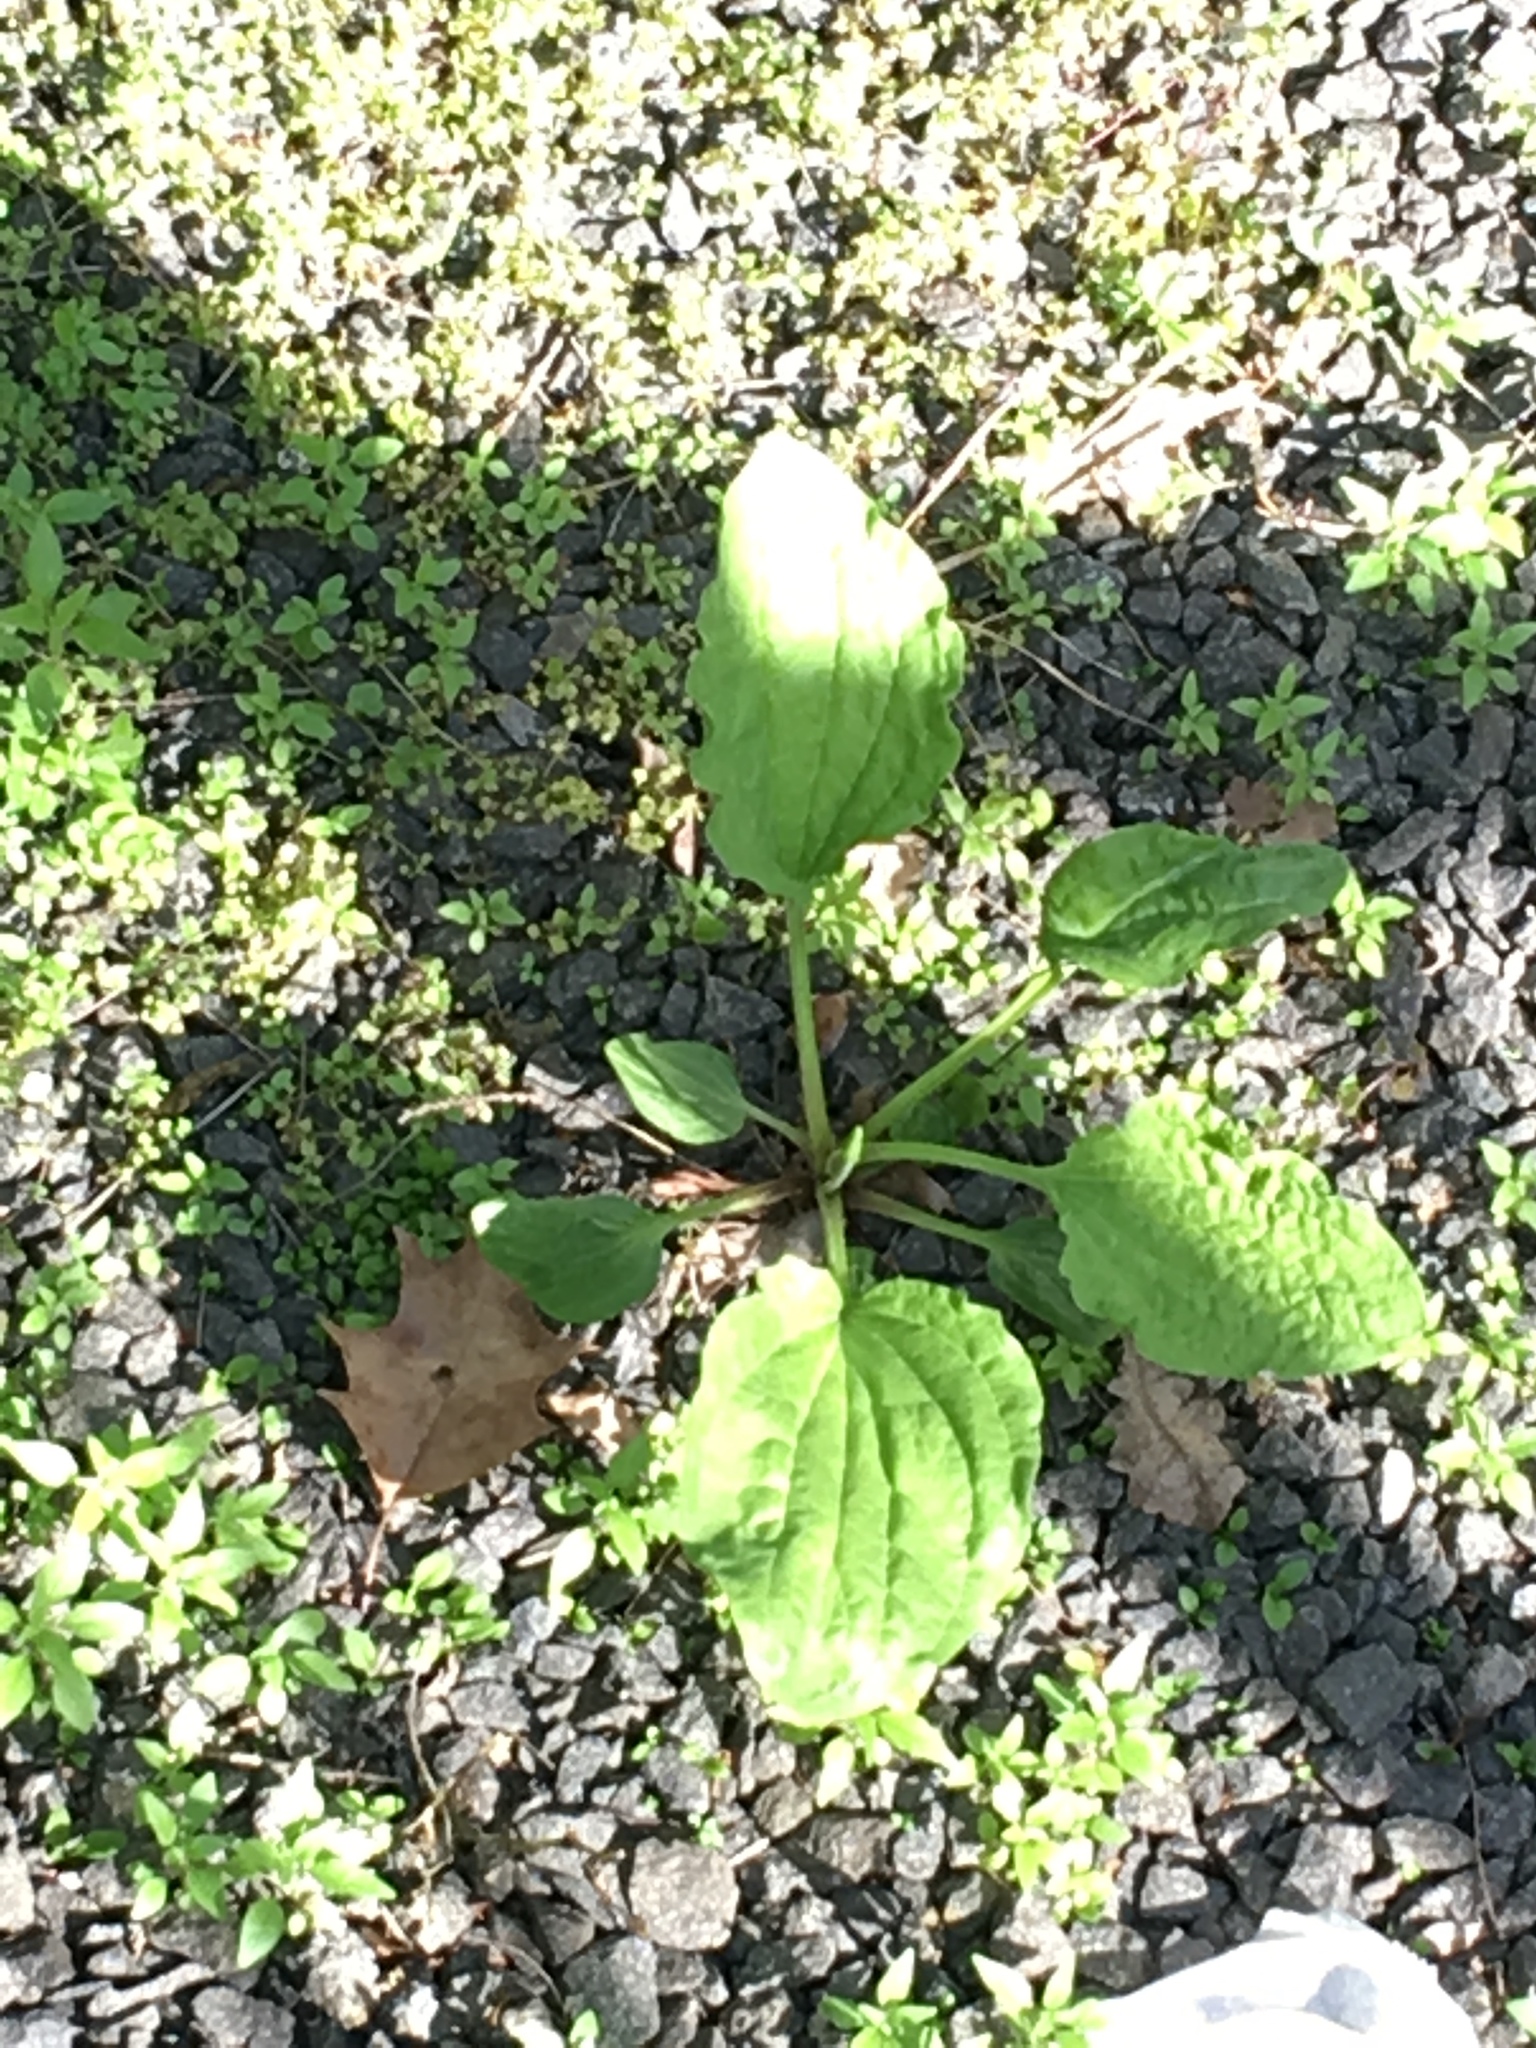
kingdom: Plantae
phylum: Tracheophyta
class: Magnoliopsida
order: Lamiales
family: Plantaginaceae
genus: Plantago
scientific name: Plantago rugelii
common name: American plantain
